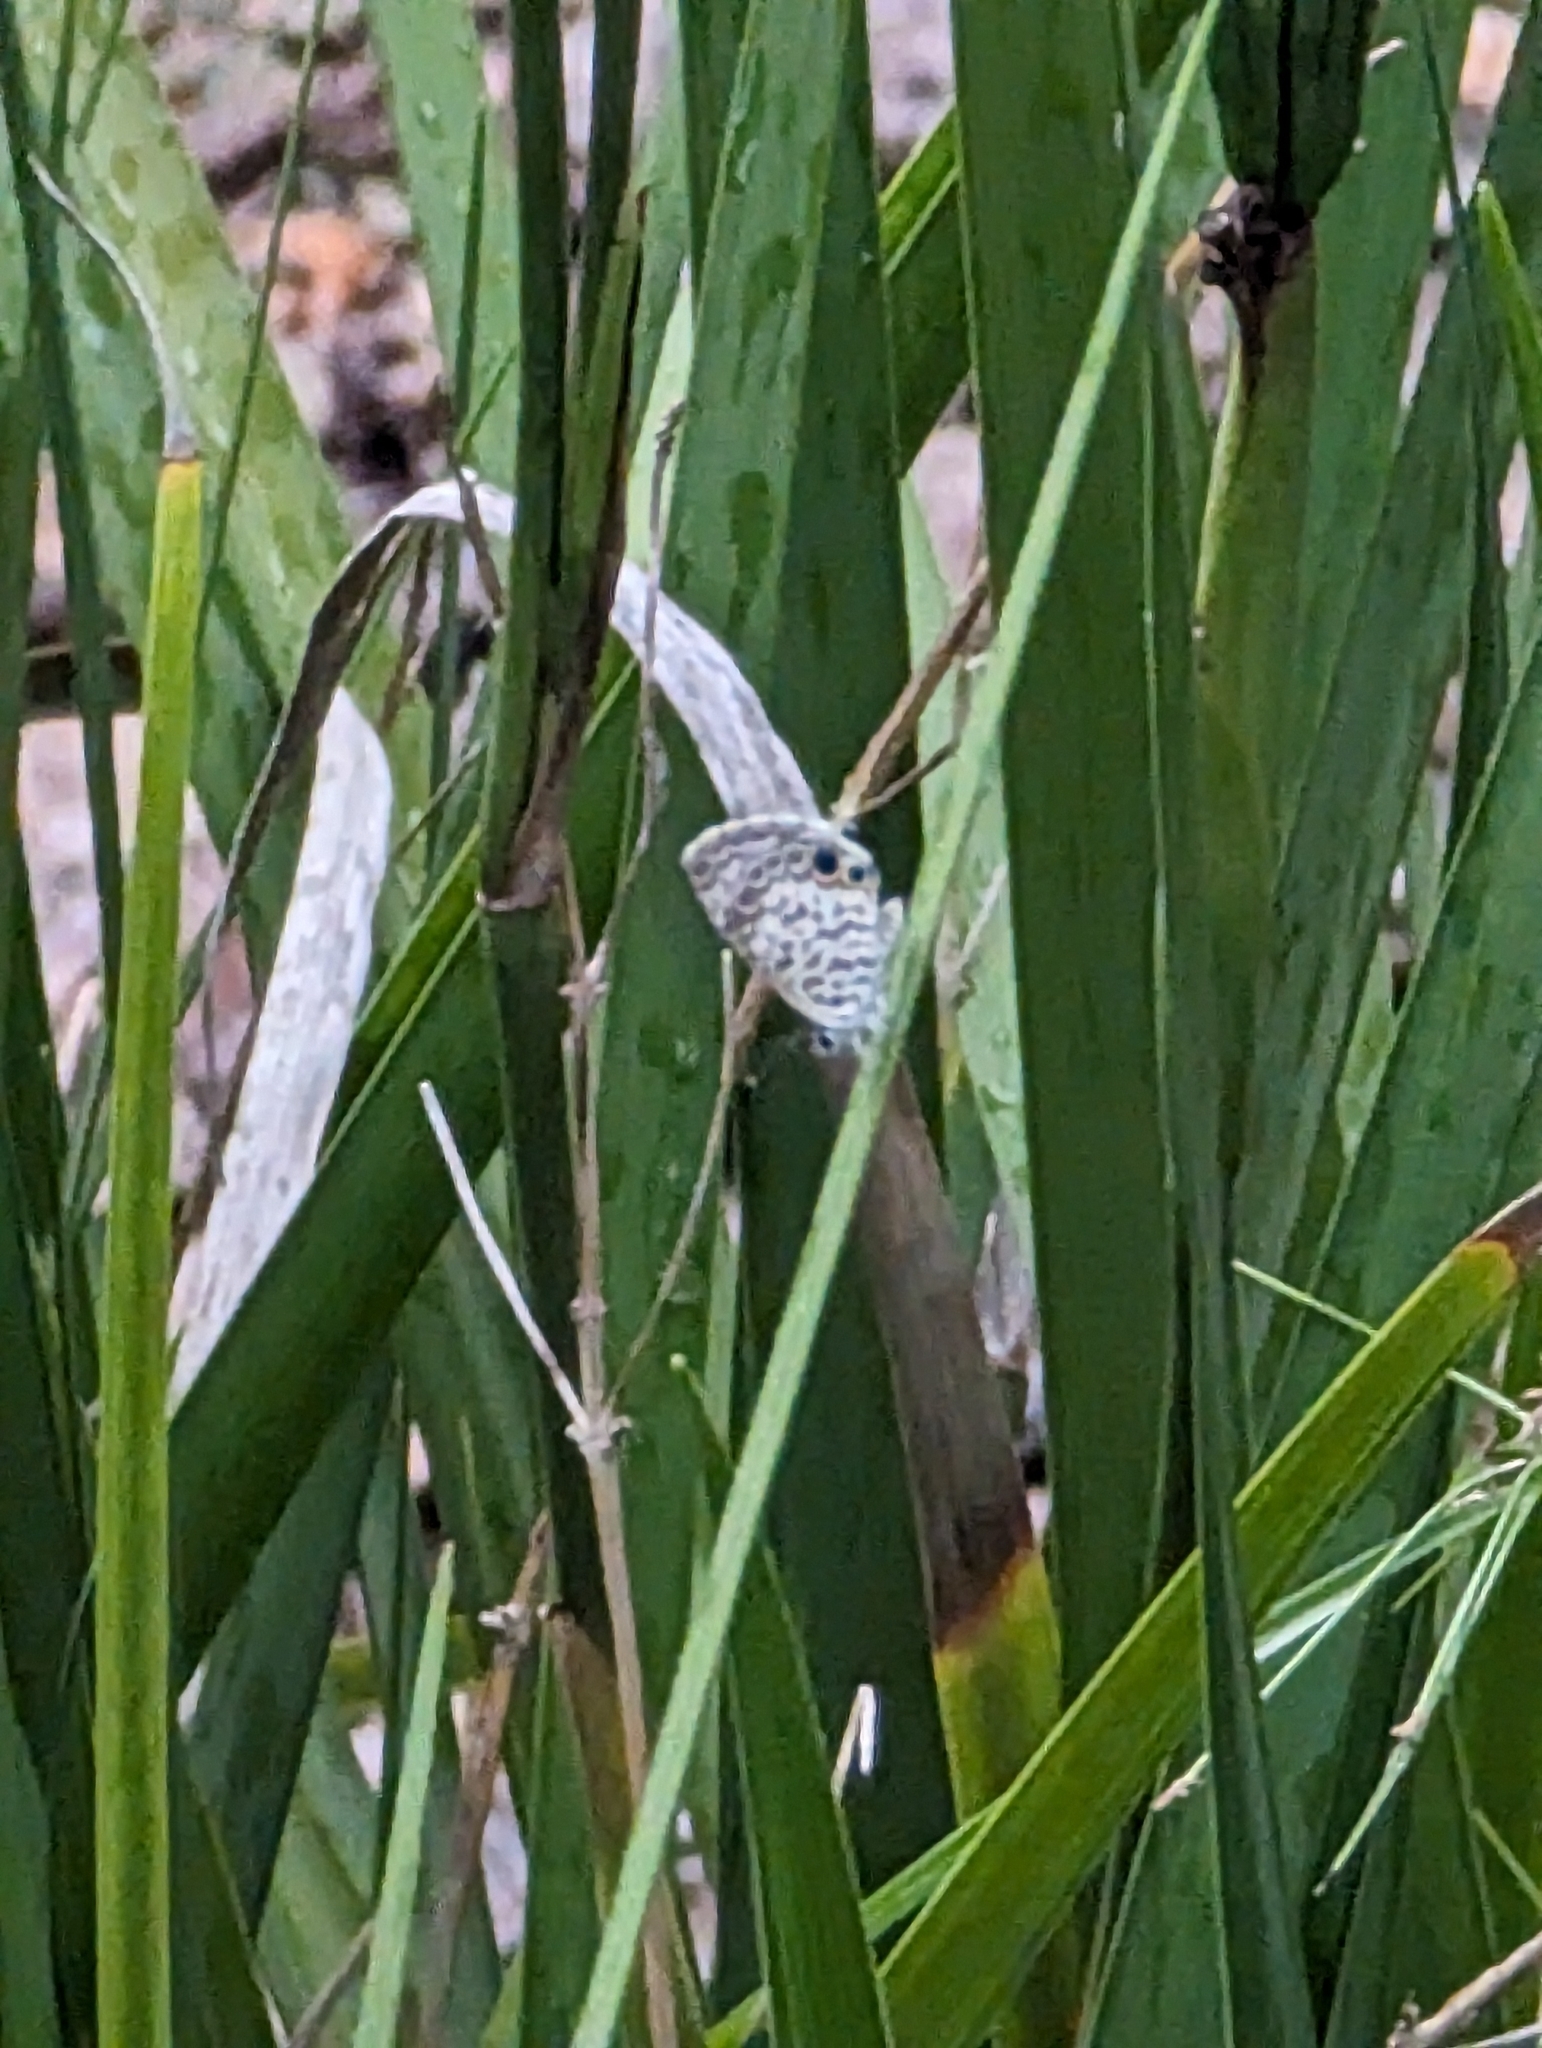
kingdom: Animalia
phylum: Arthropoda
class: Insecta
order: Lepidoptera
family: Lycaenidae
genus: Leptotes
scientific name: Leptotes cassius
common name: Cassius blue
